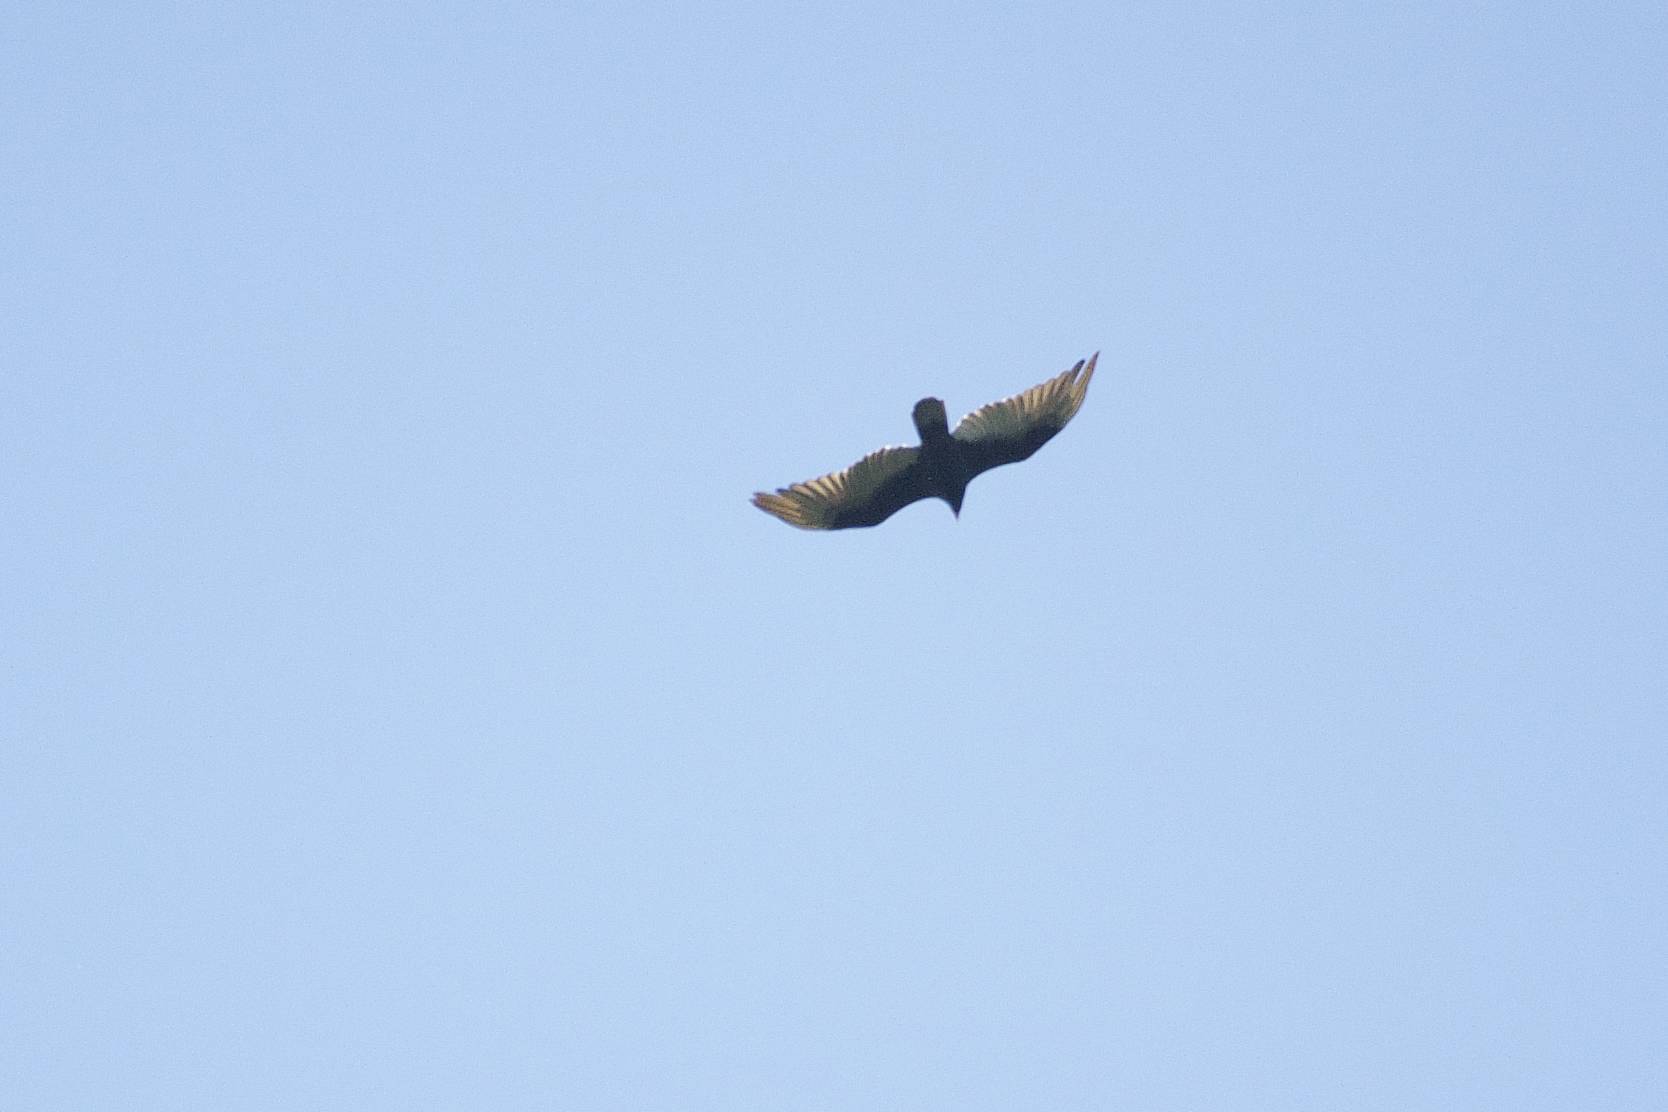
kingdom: Animalia
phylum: Chordata
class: Aves
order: Accipitriformes
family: Cathartidae
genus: Cathartes
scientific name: Cathartes aura
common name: Turkey vulture
